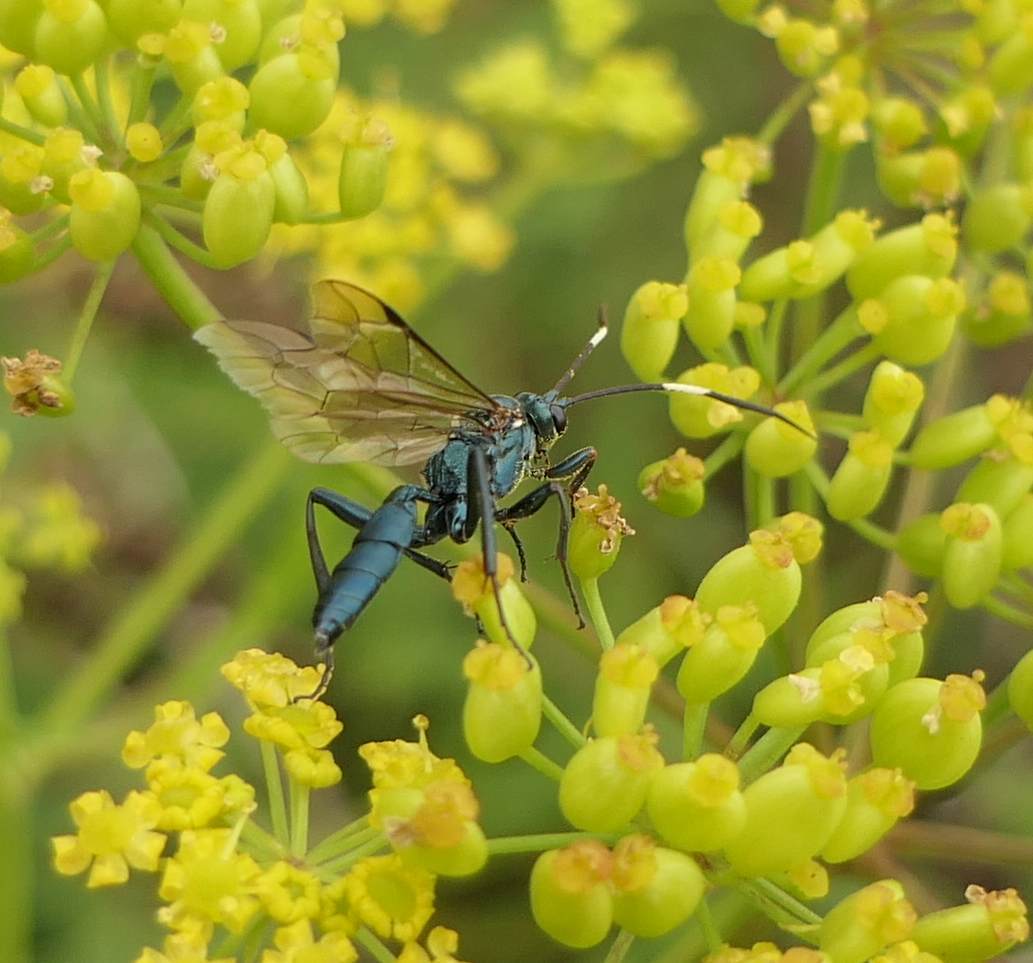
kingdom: Animalia
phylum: Arthropoda
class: Insecta
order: Hymenoptera
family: Ichneumonidae
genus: Platylabus
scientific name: Platylabus clarus
